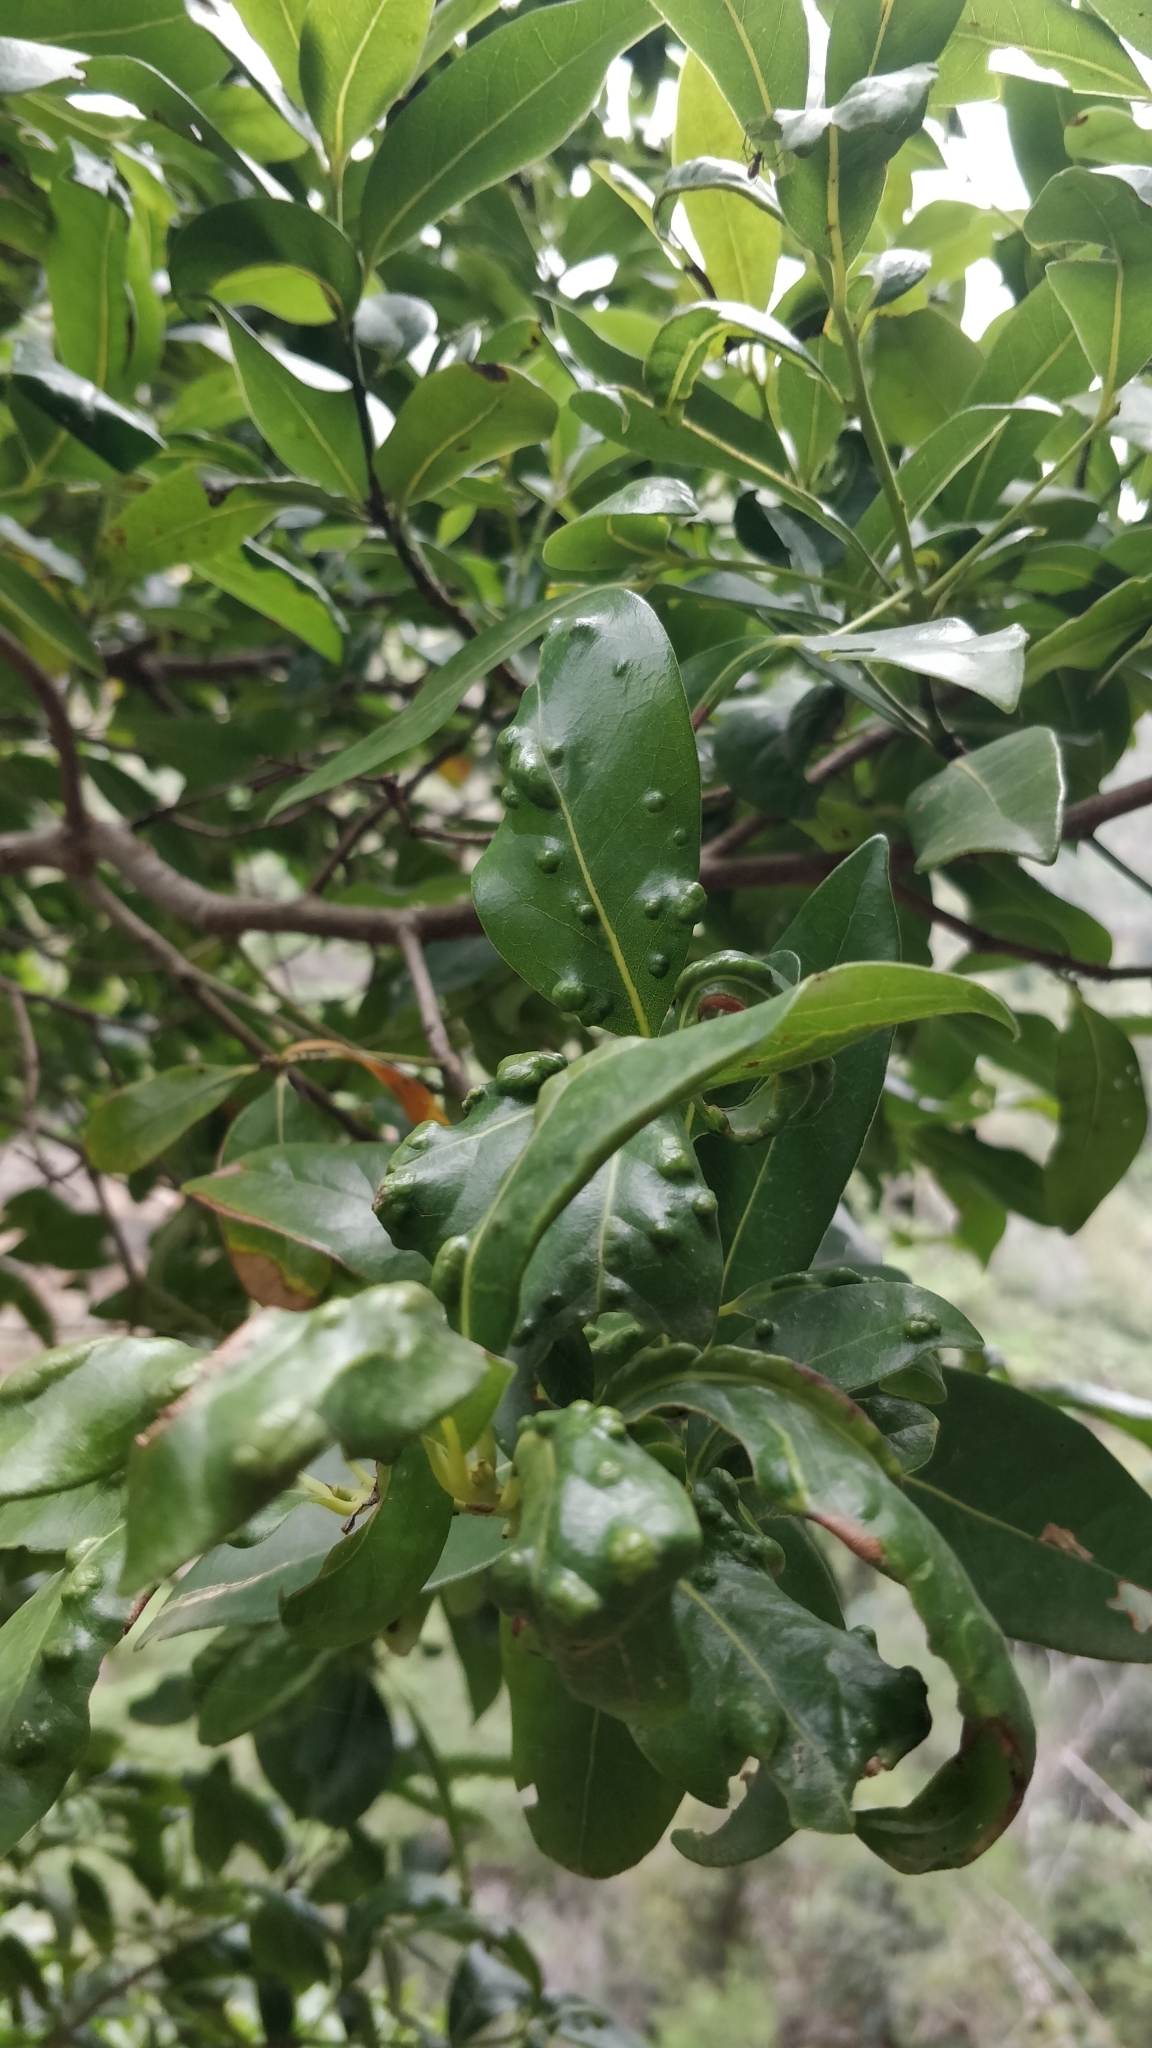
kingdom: Plantae
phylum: Tracheophyta
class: Magnoliopsida
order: Laurales
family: Lauraceae
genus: Apollonias
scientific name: Apollonias barbujana
